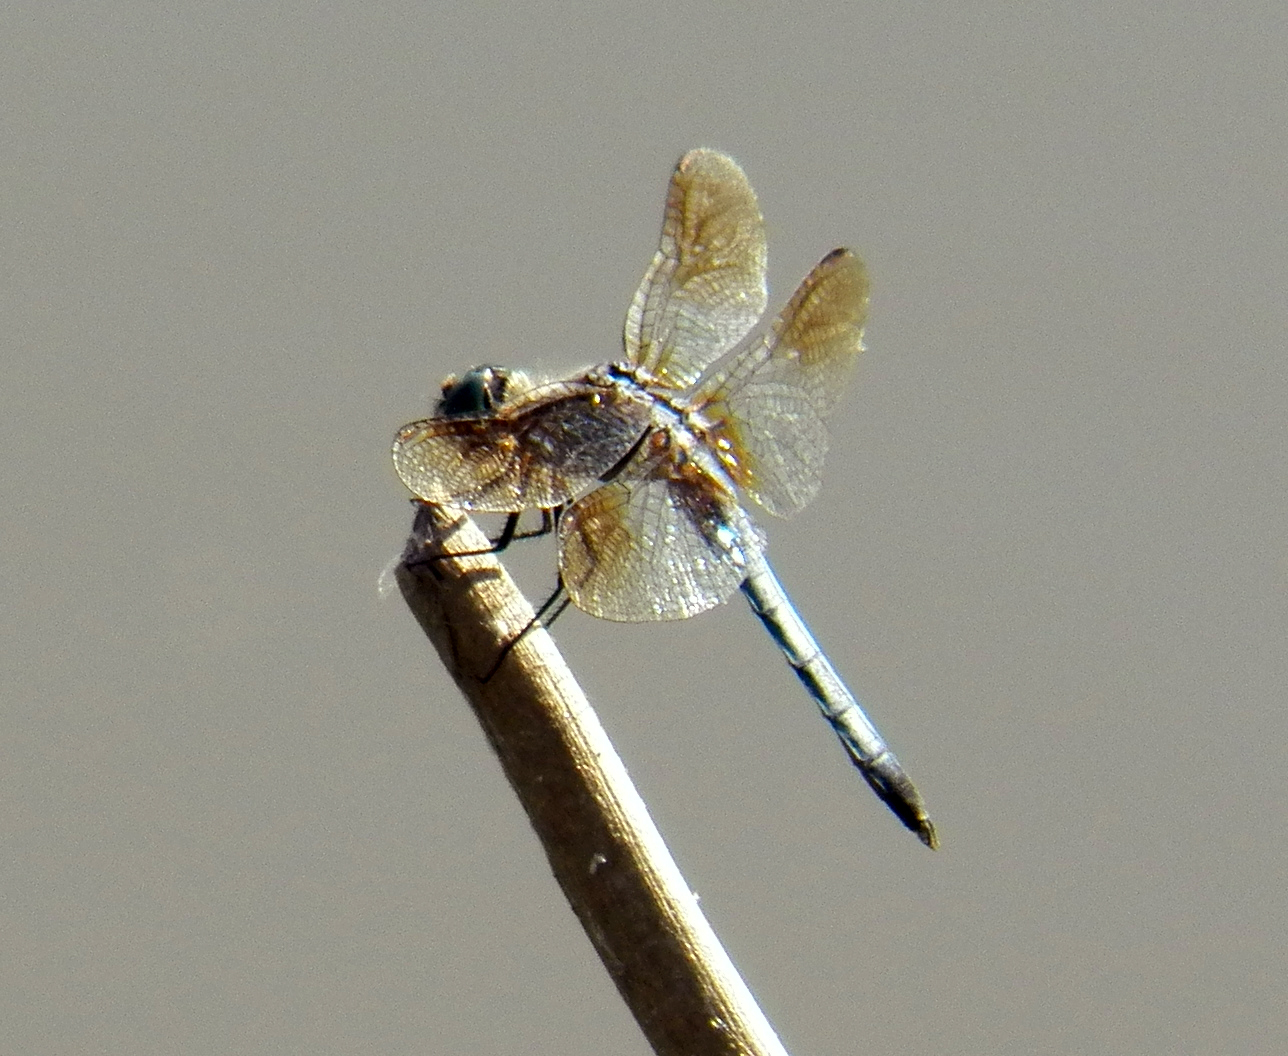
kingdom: Animalia
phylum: Arthropoda
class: Insecta
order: Odonata
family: Libellulidae
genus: Pachydiplax
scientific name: Pachydiplax longipennis
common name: Blue dasher
